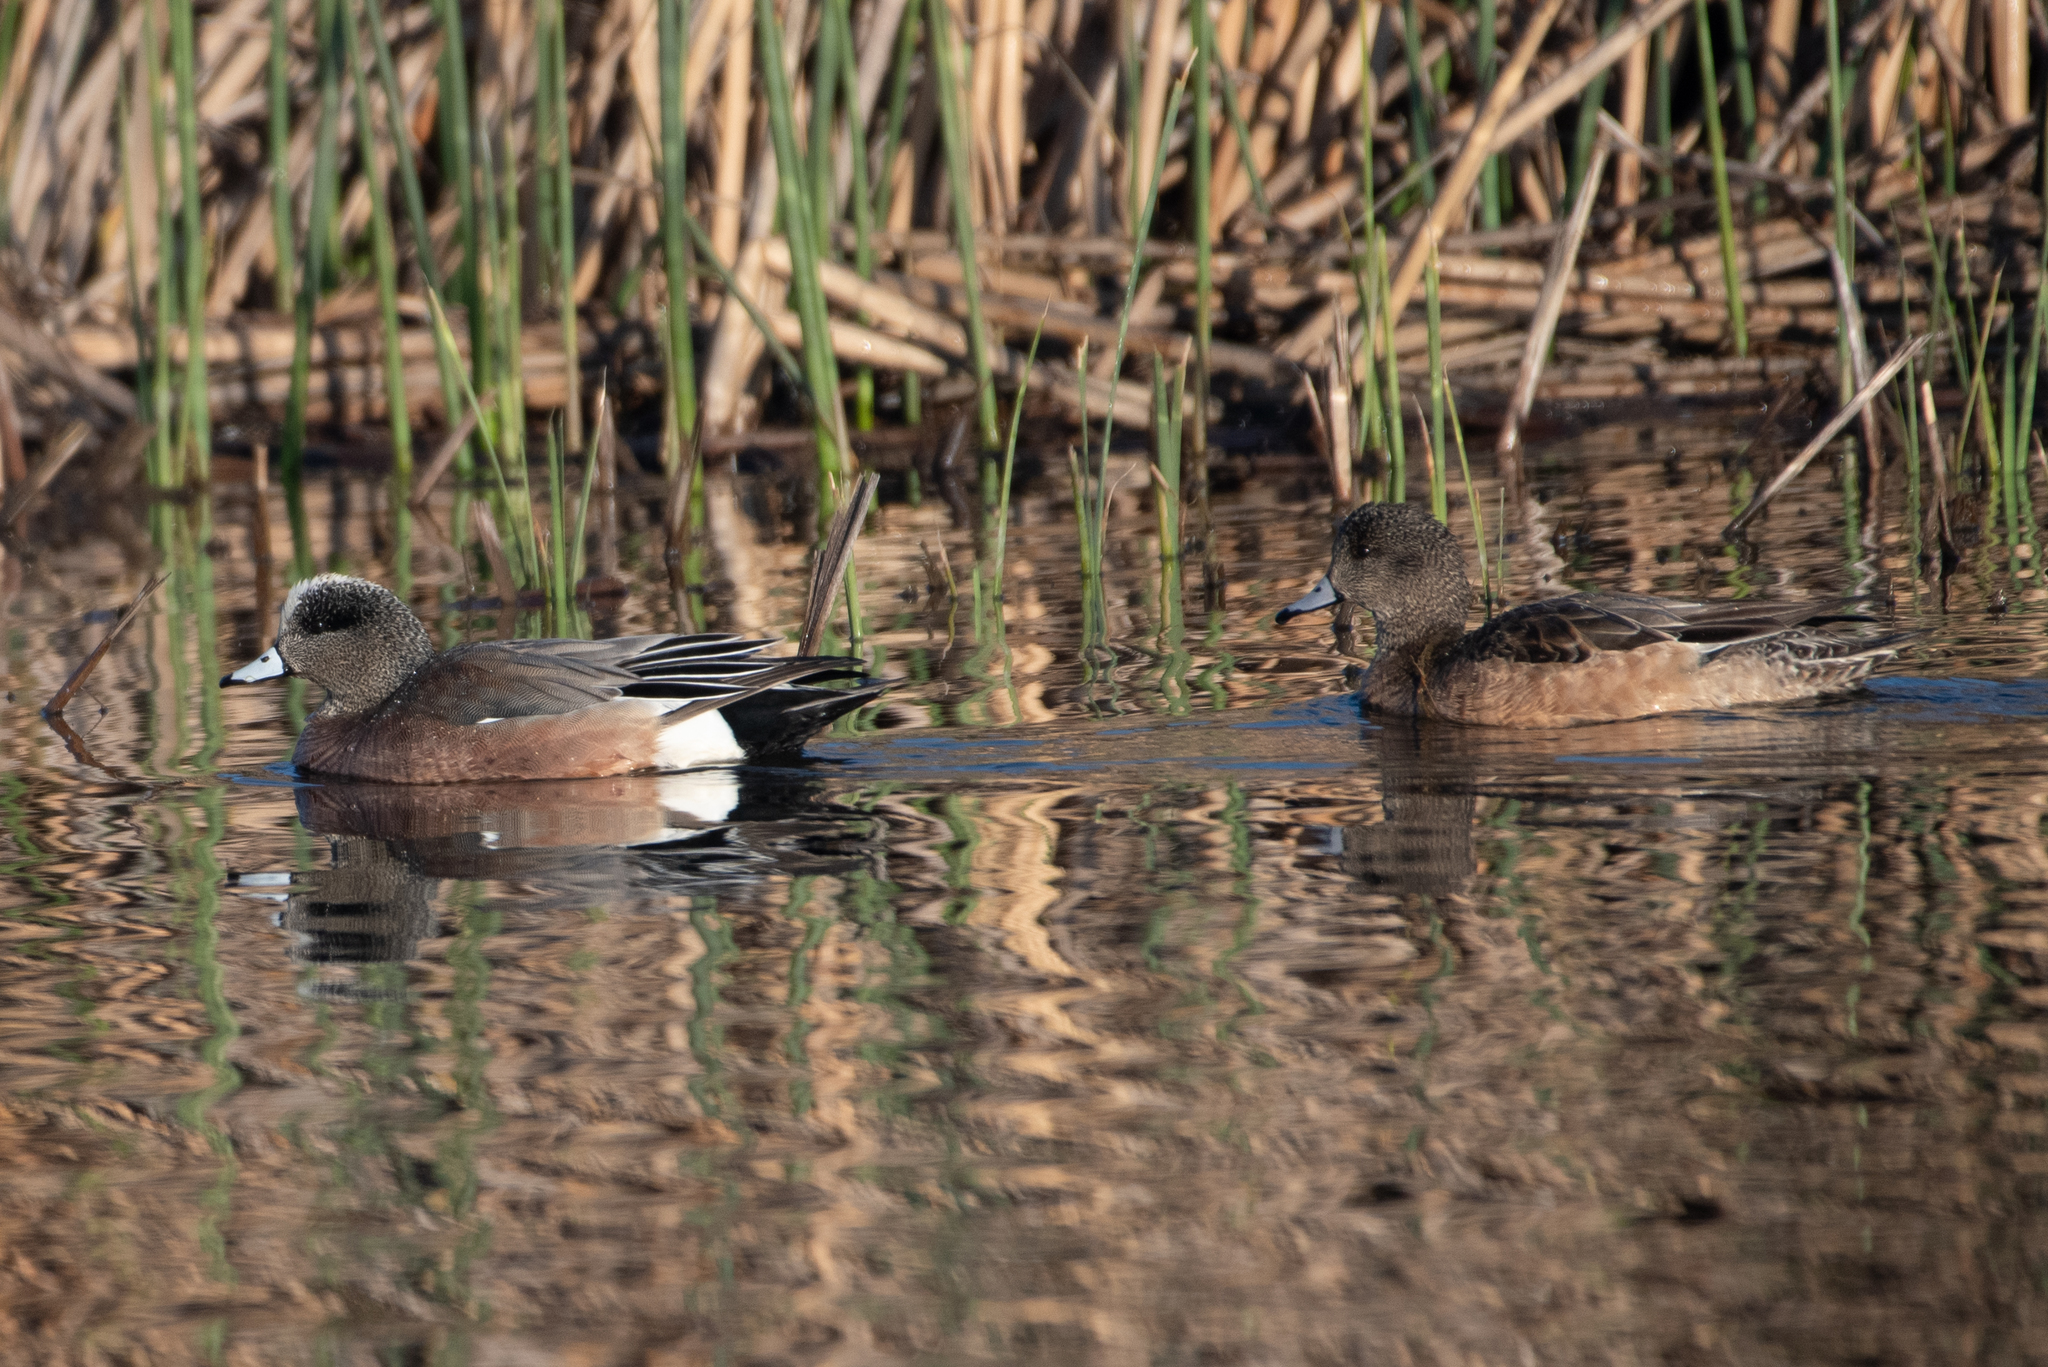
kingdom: Animalia
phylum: Chordata
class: Aves
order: Anseriformes
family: Anatidae
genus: Mareca
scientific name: Mareca americana
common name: American wigeon
